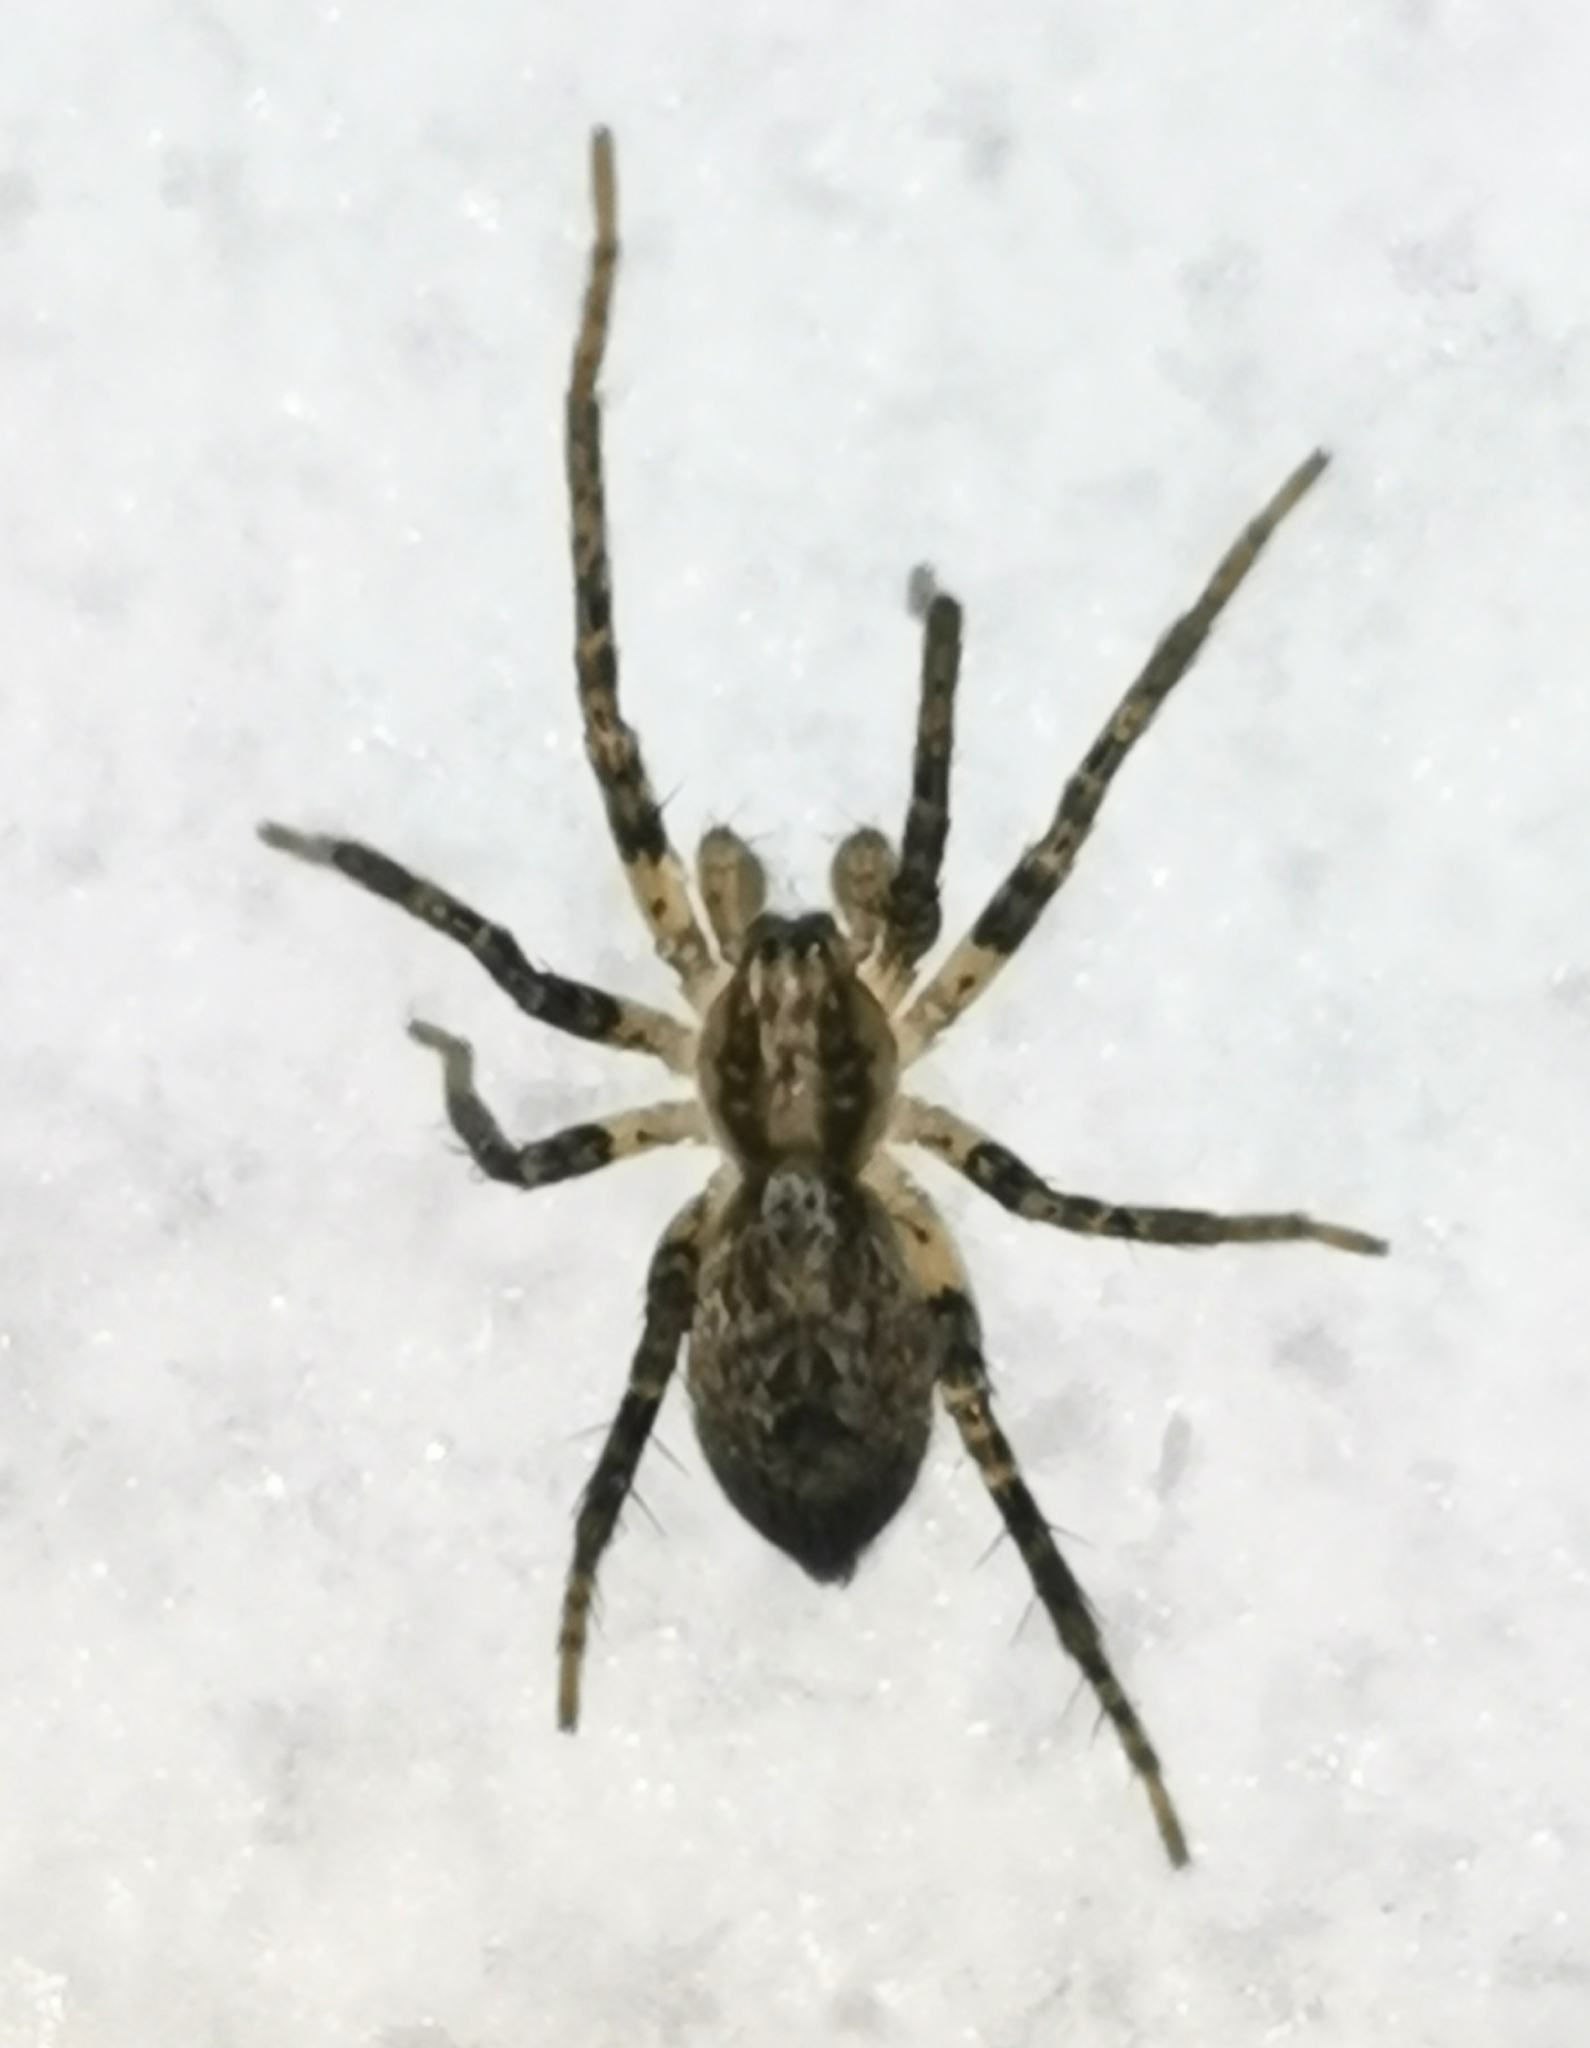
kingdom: Animalia
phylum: Arthropoda
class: Arachnida
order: Araneae
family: Anyphaenidae
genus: Anyphaena
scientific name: Anyphaena accentuata
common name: Buzzing spider
